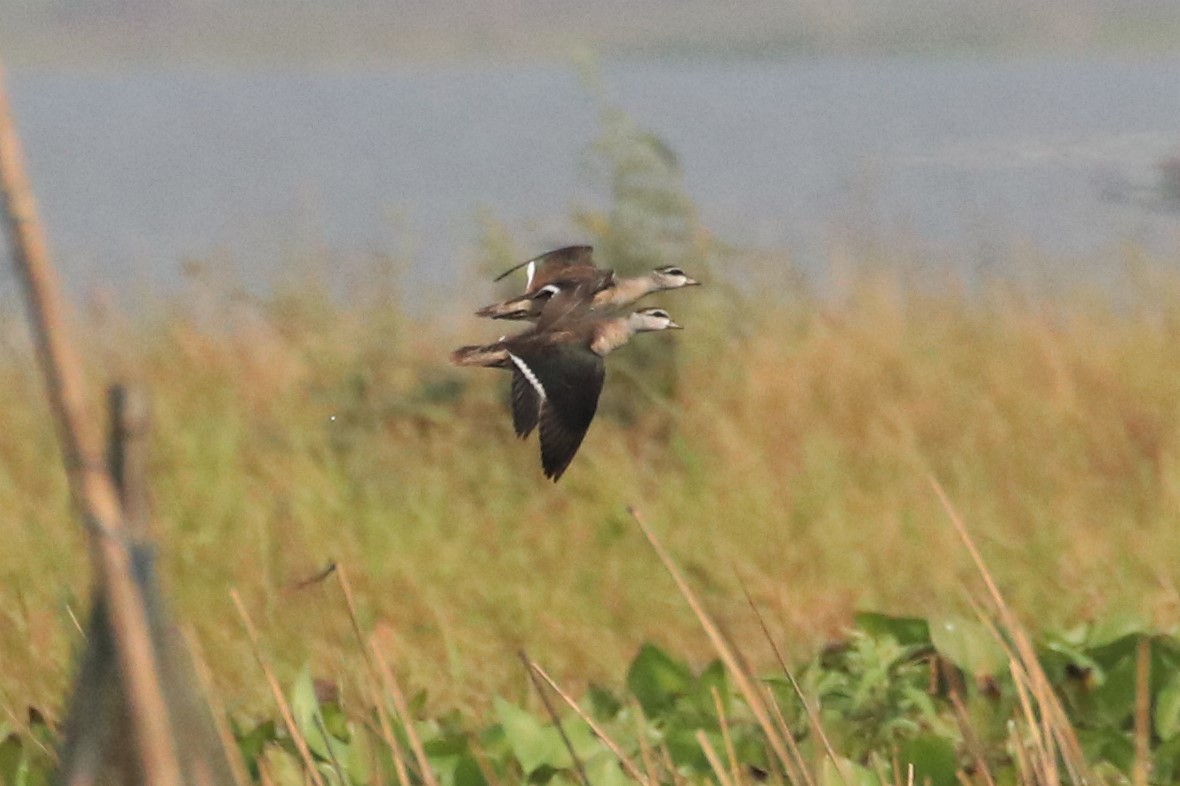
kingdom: Animalia
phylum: Chordata
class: Aves
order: Anseriformes
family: Anatidae
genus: Nettapus
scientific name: Nettapus coromandelianus
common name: Cotton pygmy-goose
